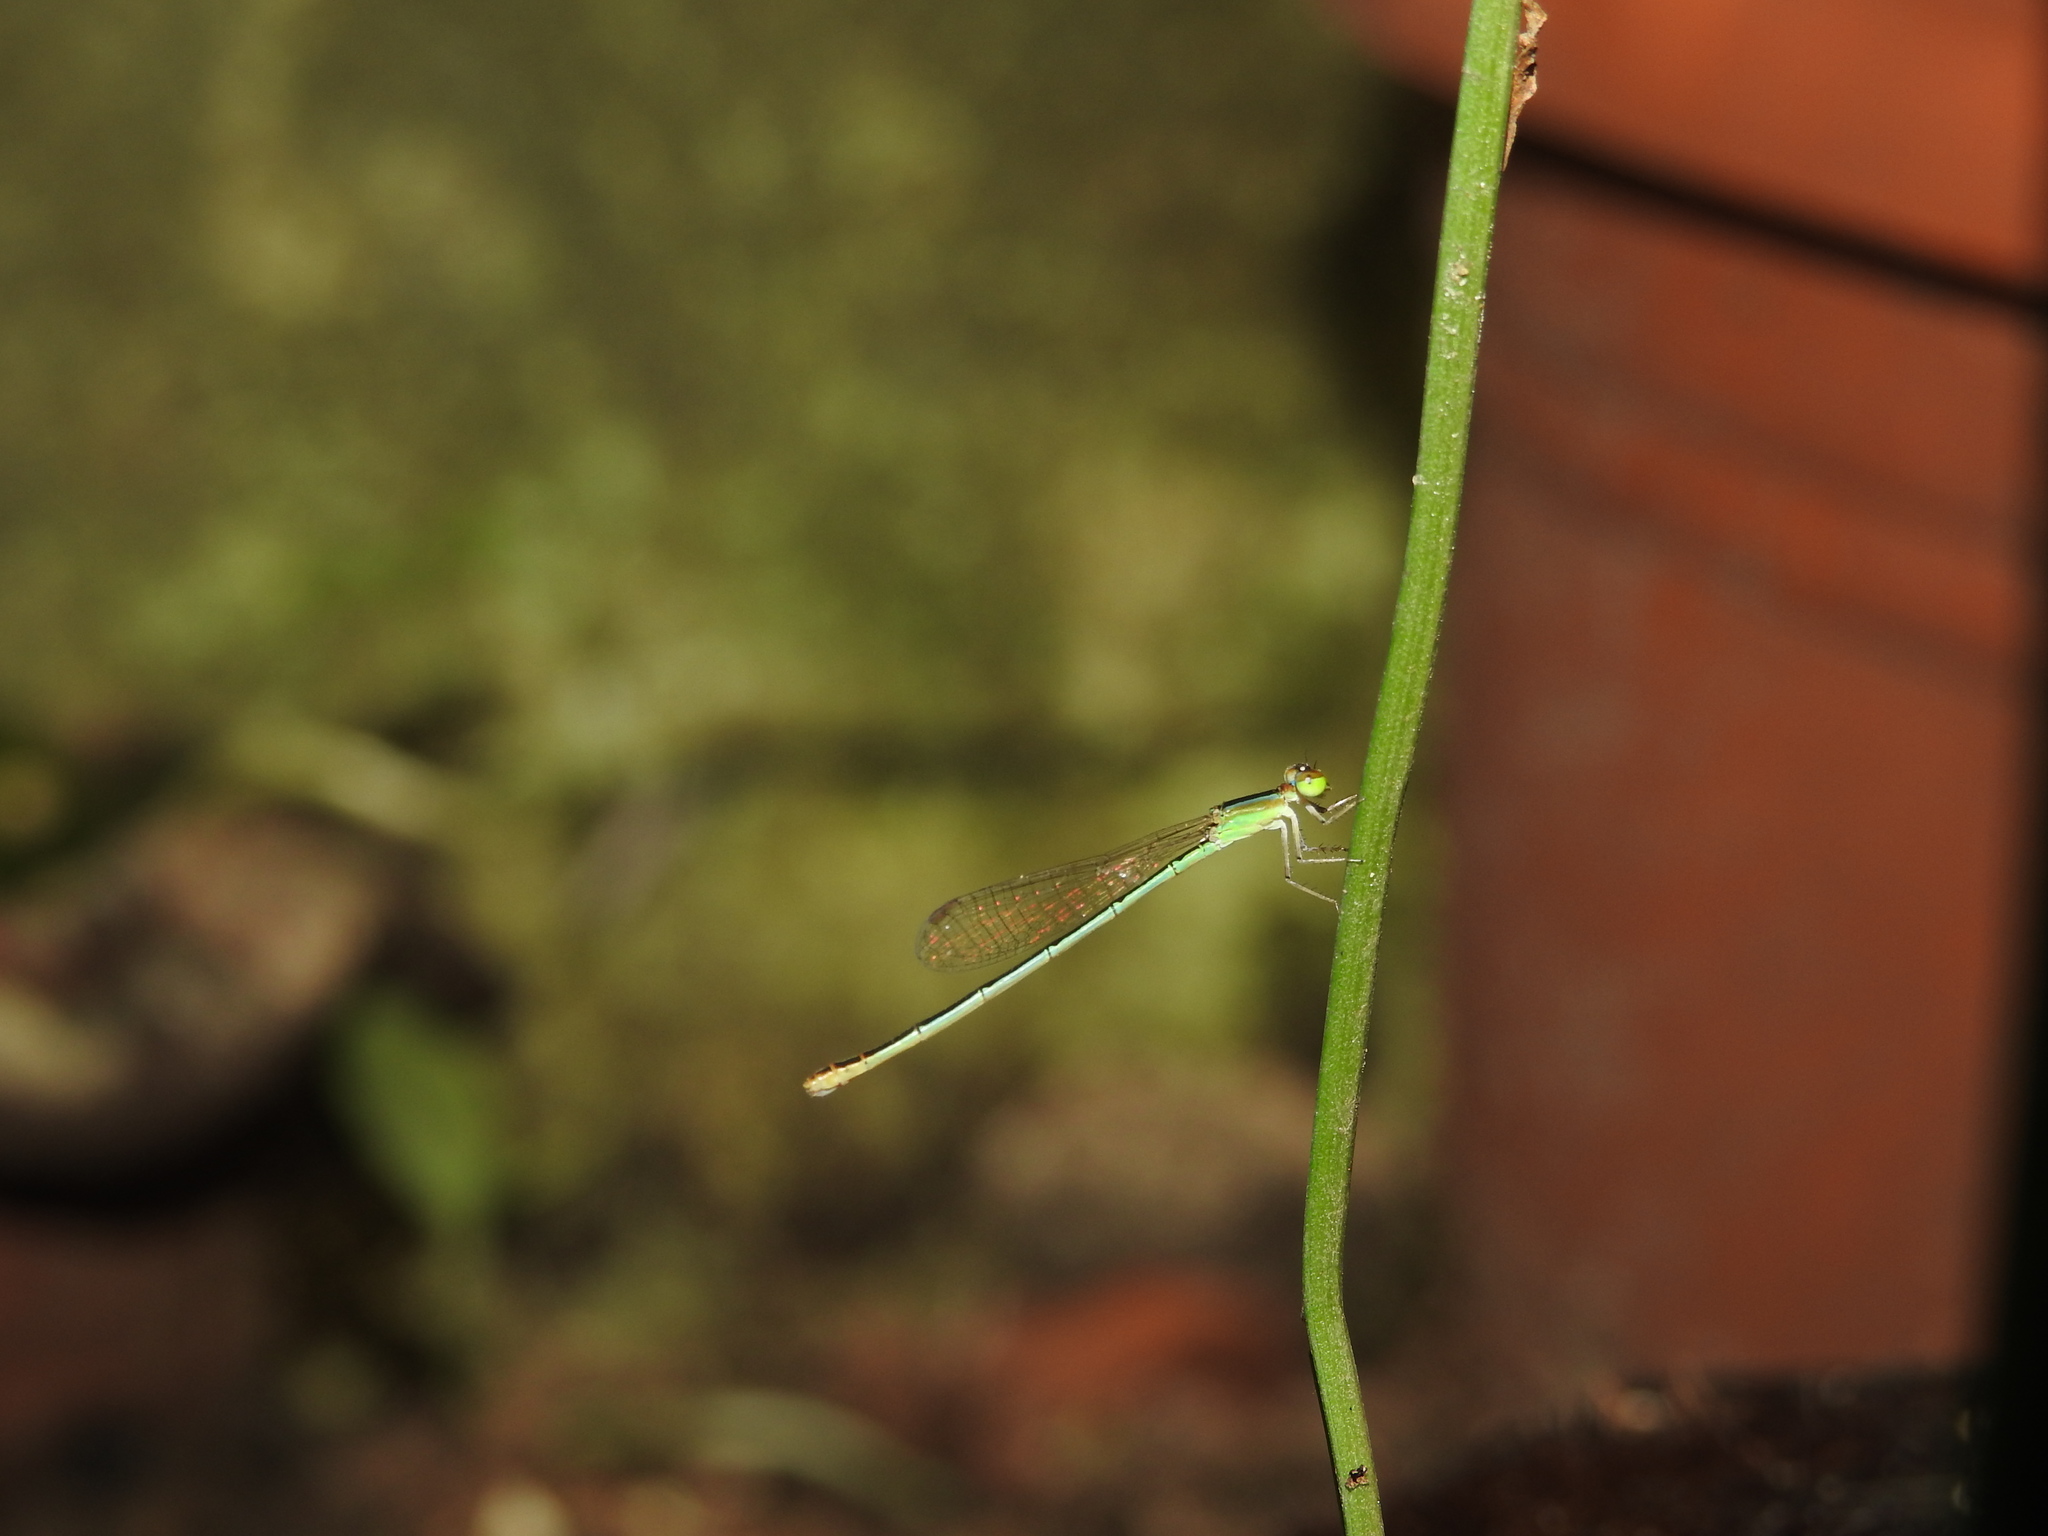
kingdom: Animalia
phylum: Arthropoda
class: Insecta
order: Odonata
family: Coenagrionidae
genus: Agriocnemis
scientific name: Agriocnemis pygmaea
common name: Pygmy wisp
